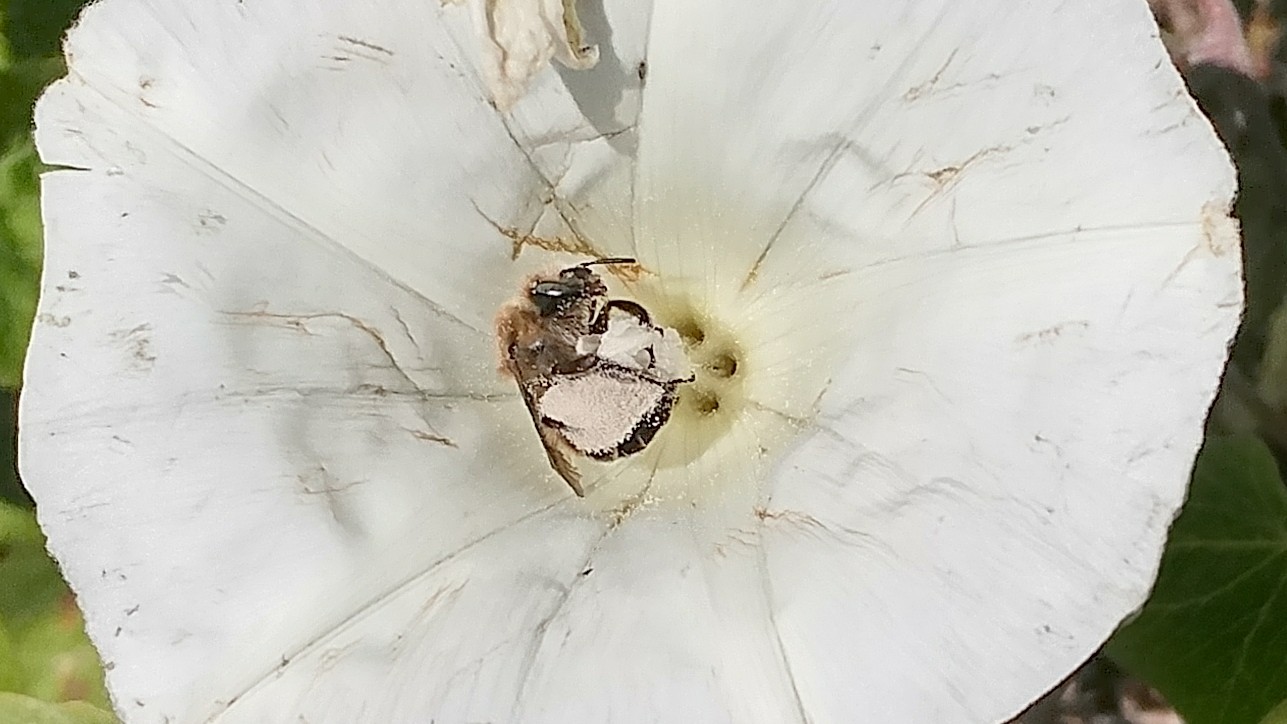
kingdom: Animalia
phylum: Arthropoda
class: Insecta
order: Hymenoptera
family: Apidae
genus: Diadasia
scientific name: Diadasia bituberculata
